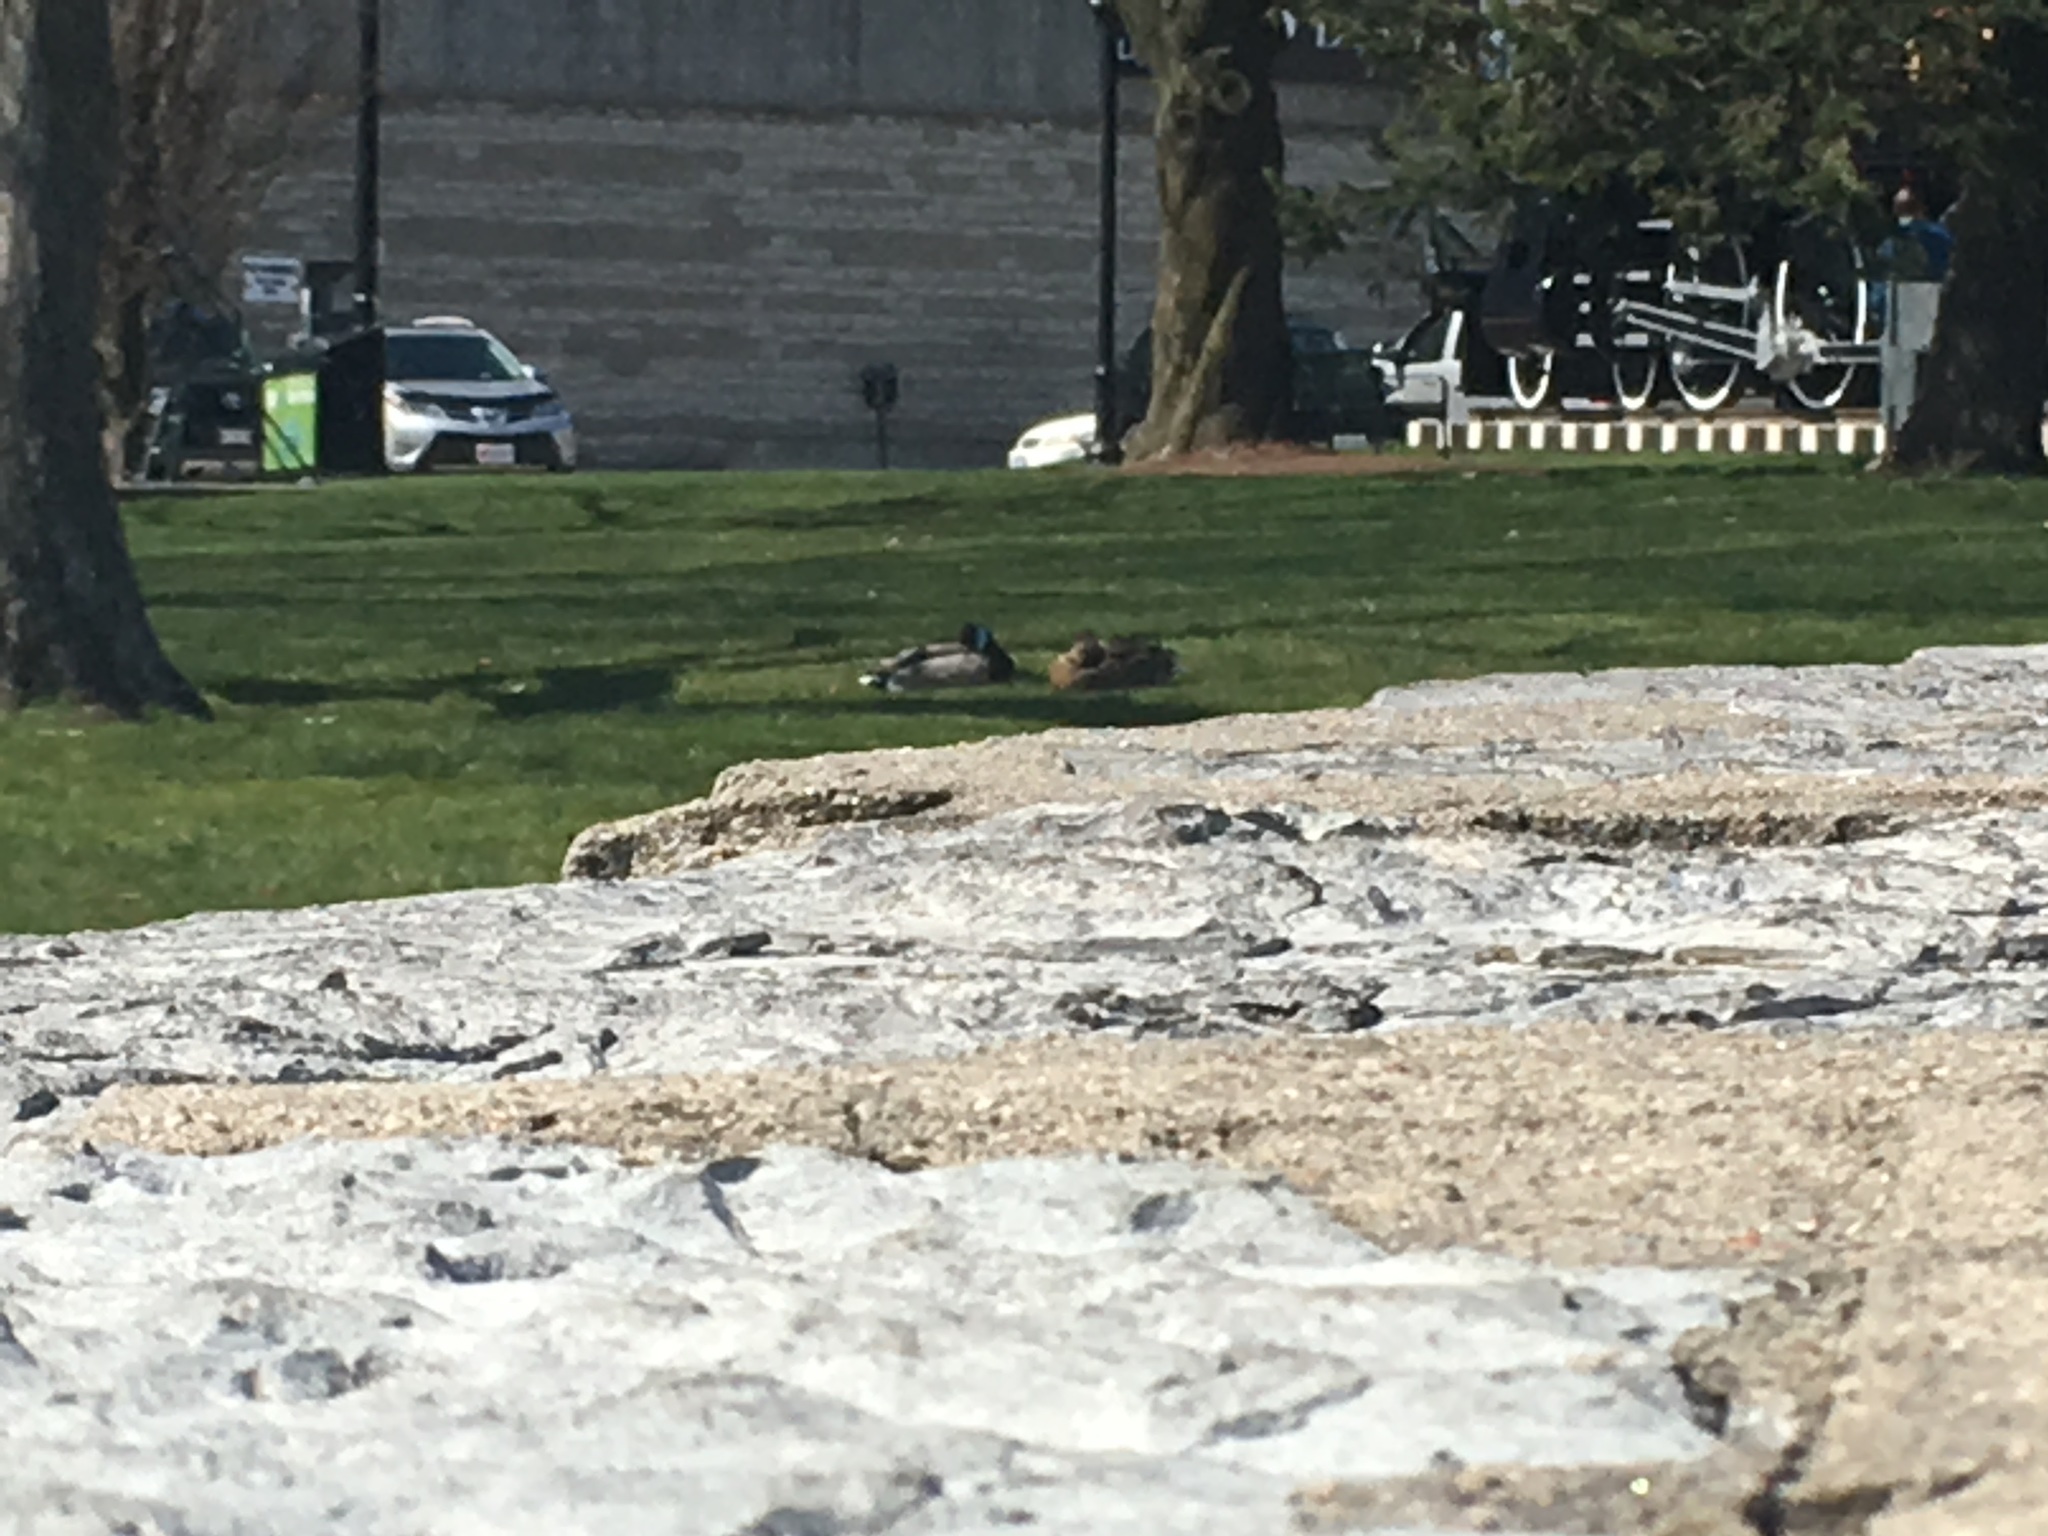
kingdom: Animalia
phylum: Chordata
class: Aves
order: Anseriformes
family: Anatidae
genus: Anas
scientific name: Anas platyrhynchos
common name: Mallard
